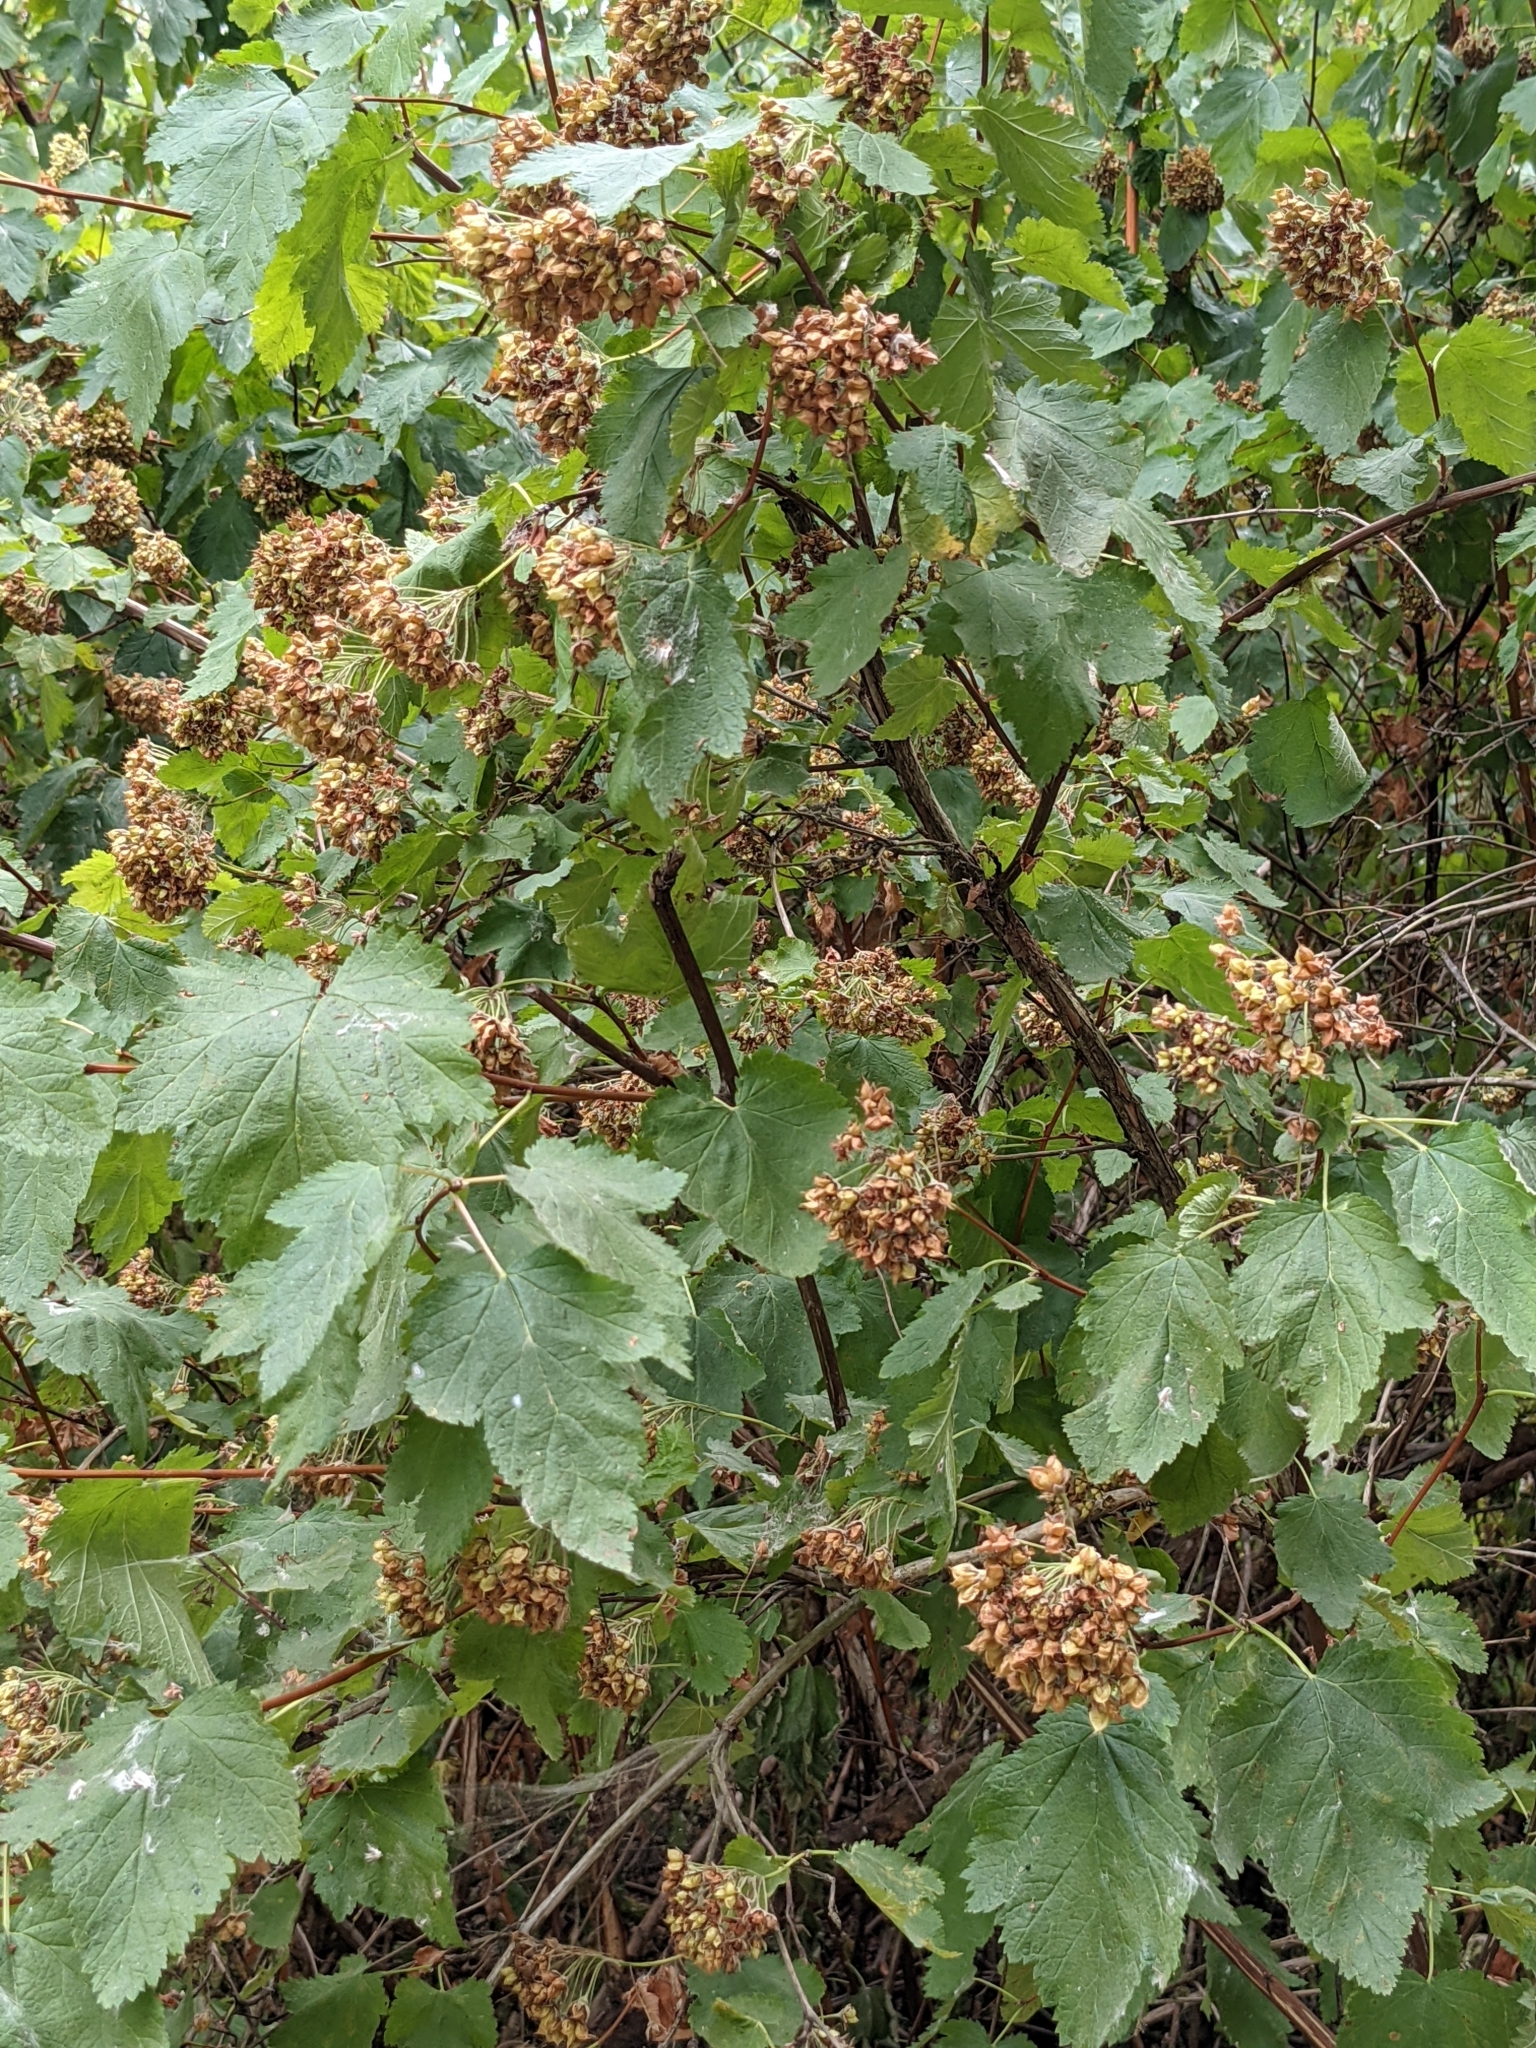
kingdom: Plantae
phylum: Tracheophyta
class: Magnoliopsida
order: Rosales
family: Rosaceae
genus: Physocarpus
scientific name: Physocarpus capitatus
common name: Pacific ninebark
